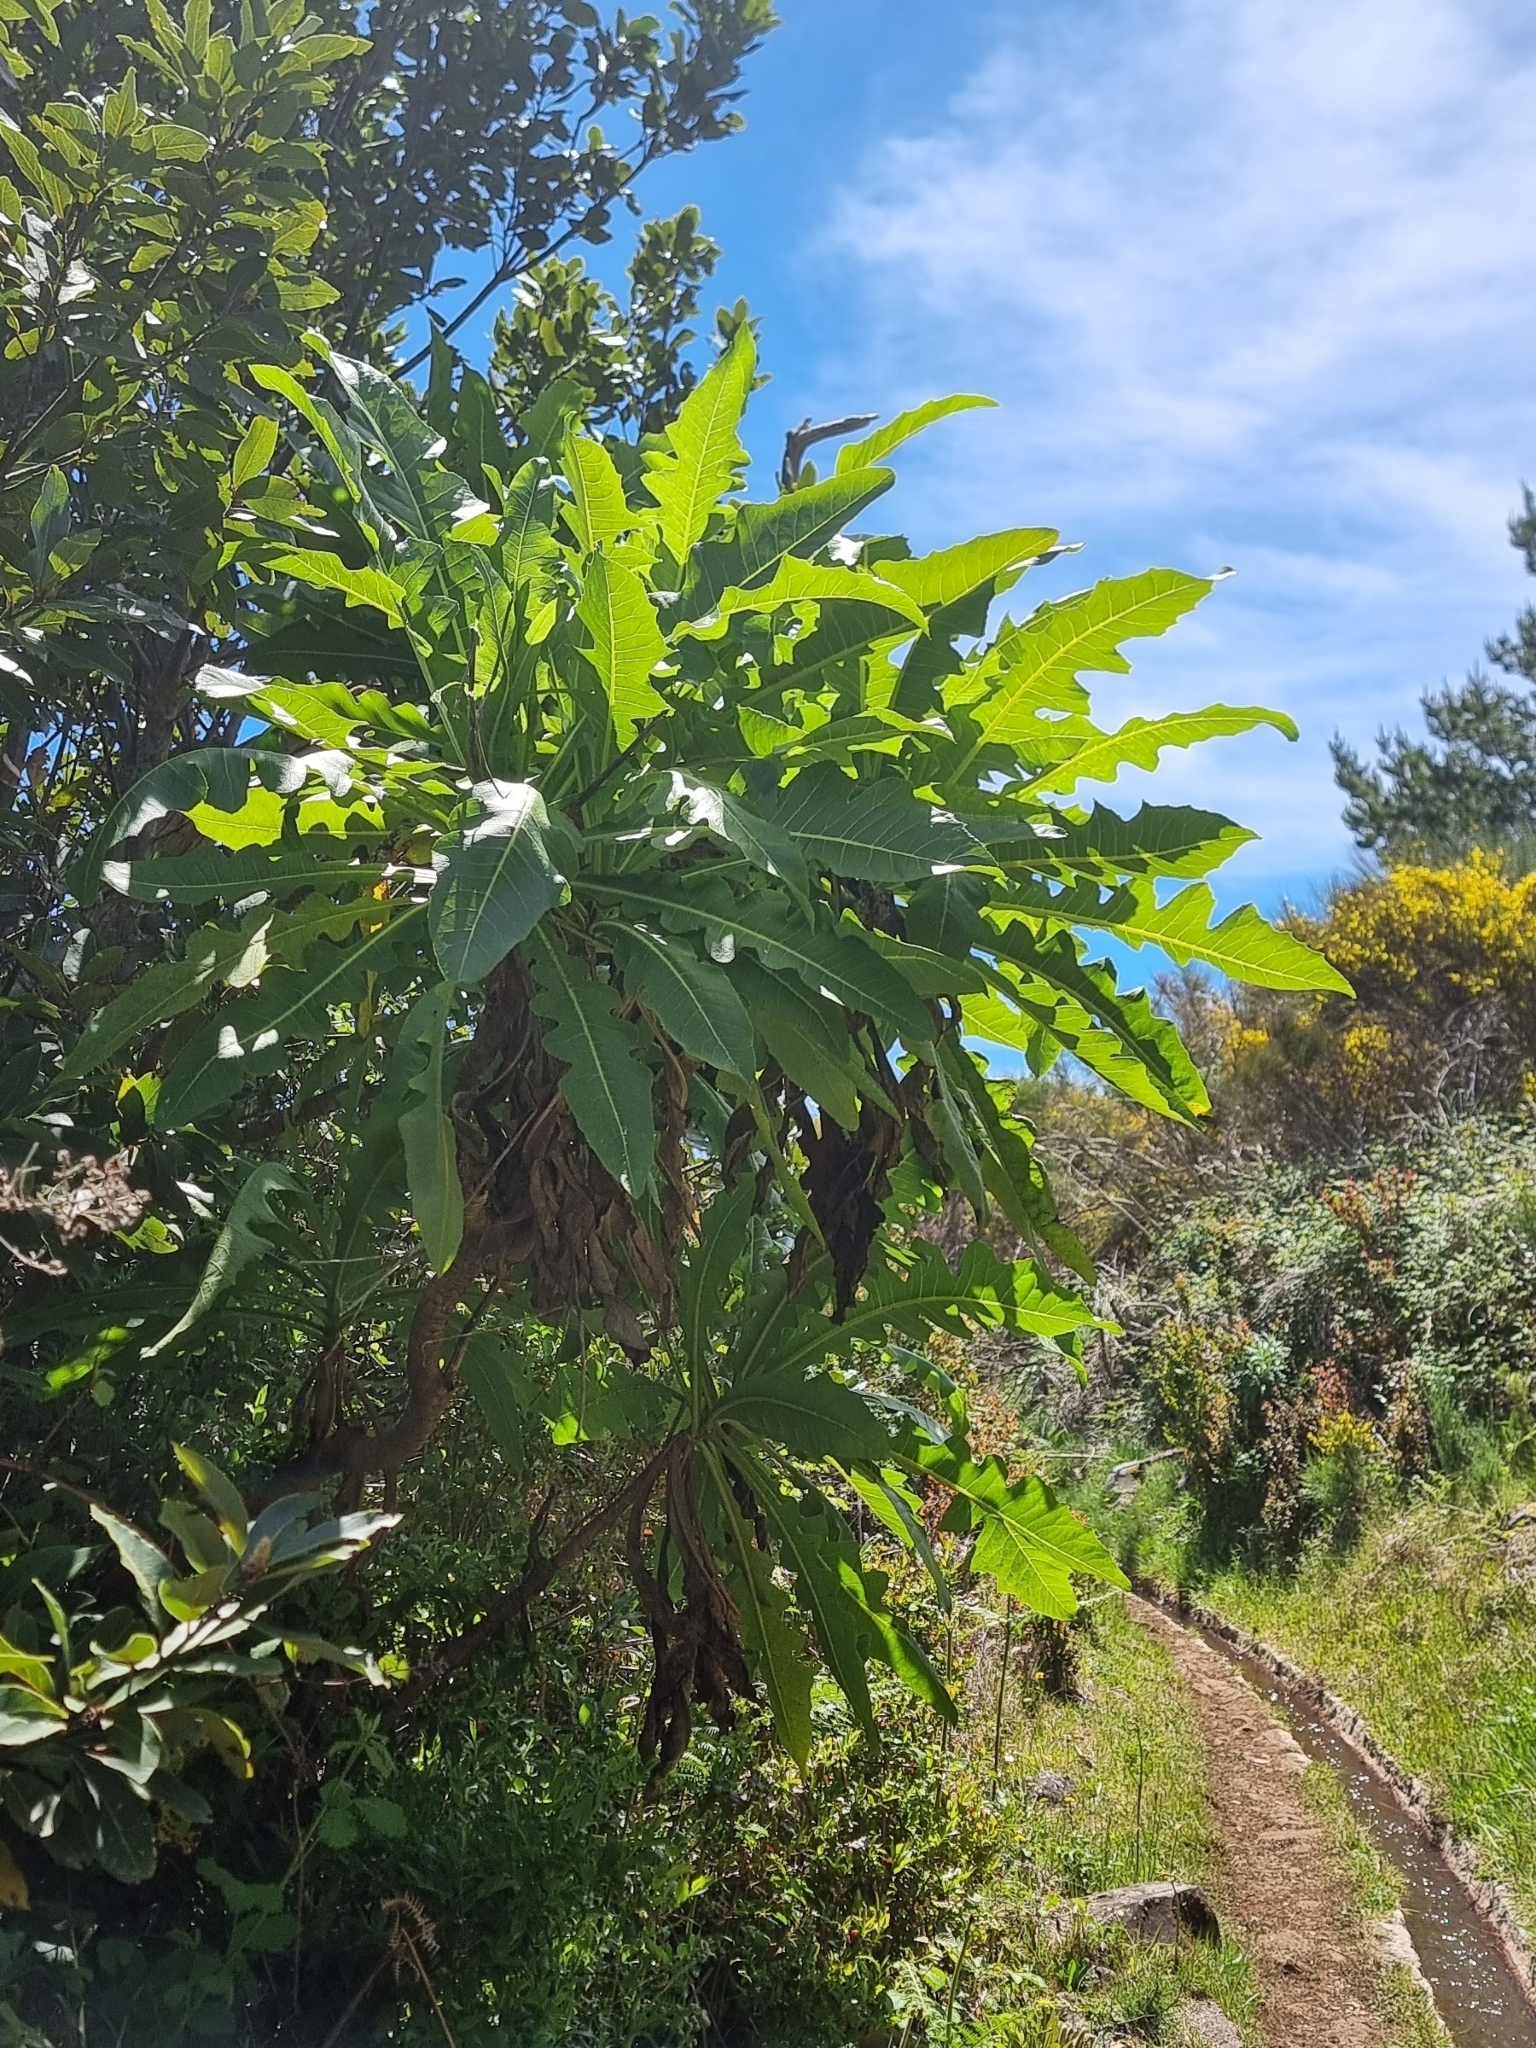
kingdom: Plantae
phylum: Tracheophyta
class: Magnoliopsida
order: Asterales
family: Asteraceae
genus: Sonchus
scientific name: Sonchus fruticosus
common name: Shrubby sow-thistle
